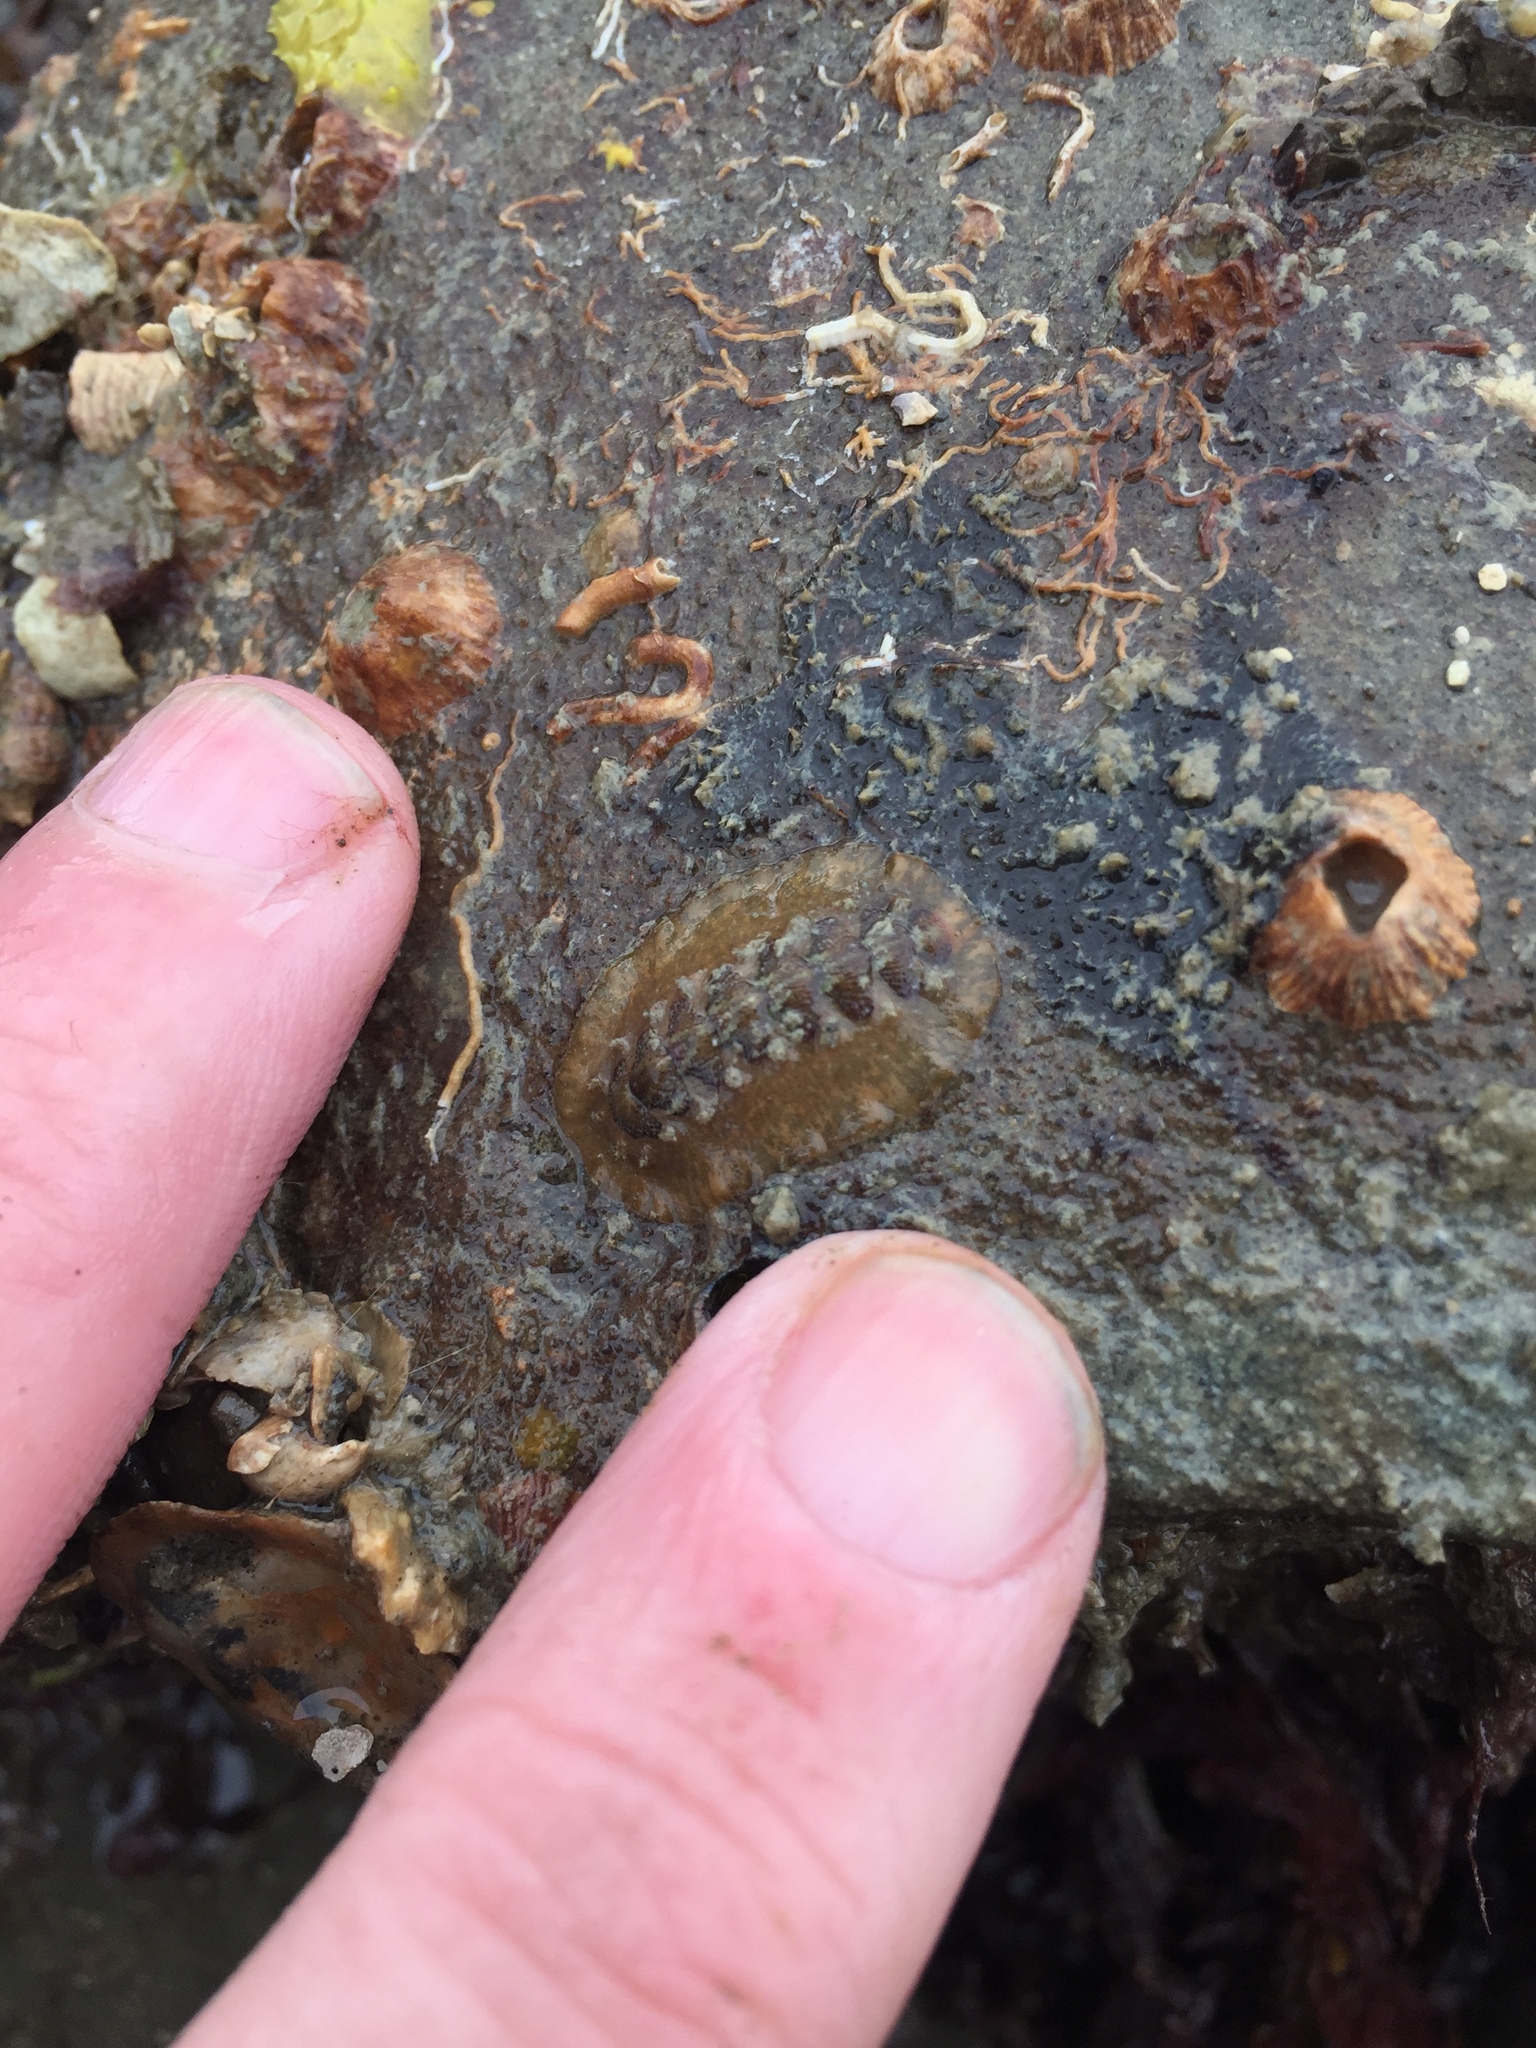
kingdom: Animalia
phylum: Mollusca
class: Polyplacophora
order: Chitonida
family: Acanthochitonidae
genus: Notoplax
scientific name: Notoplax violacea
